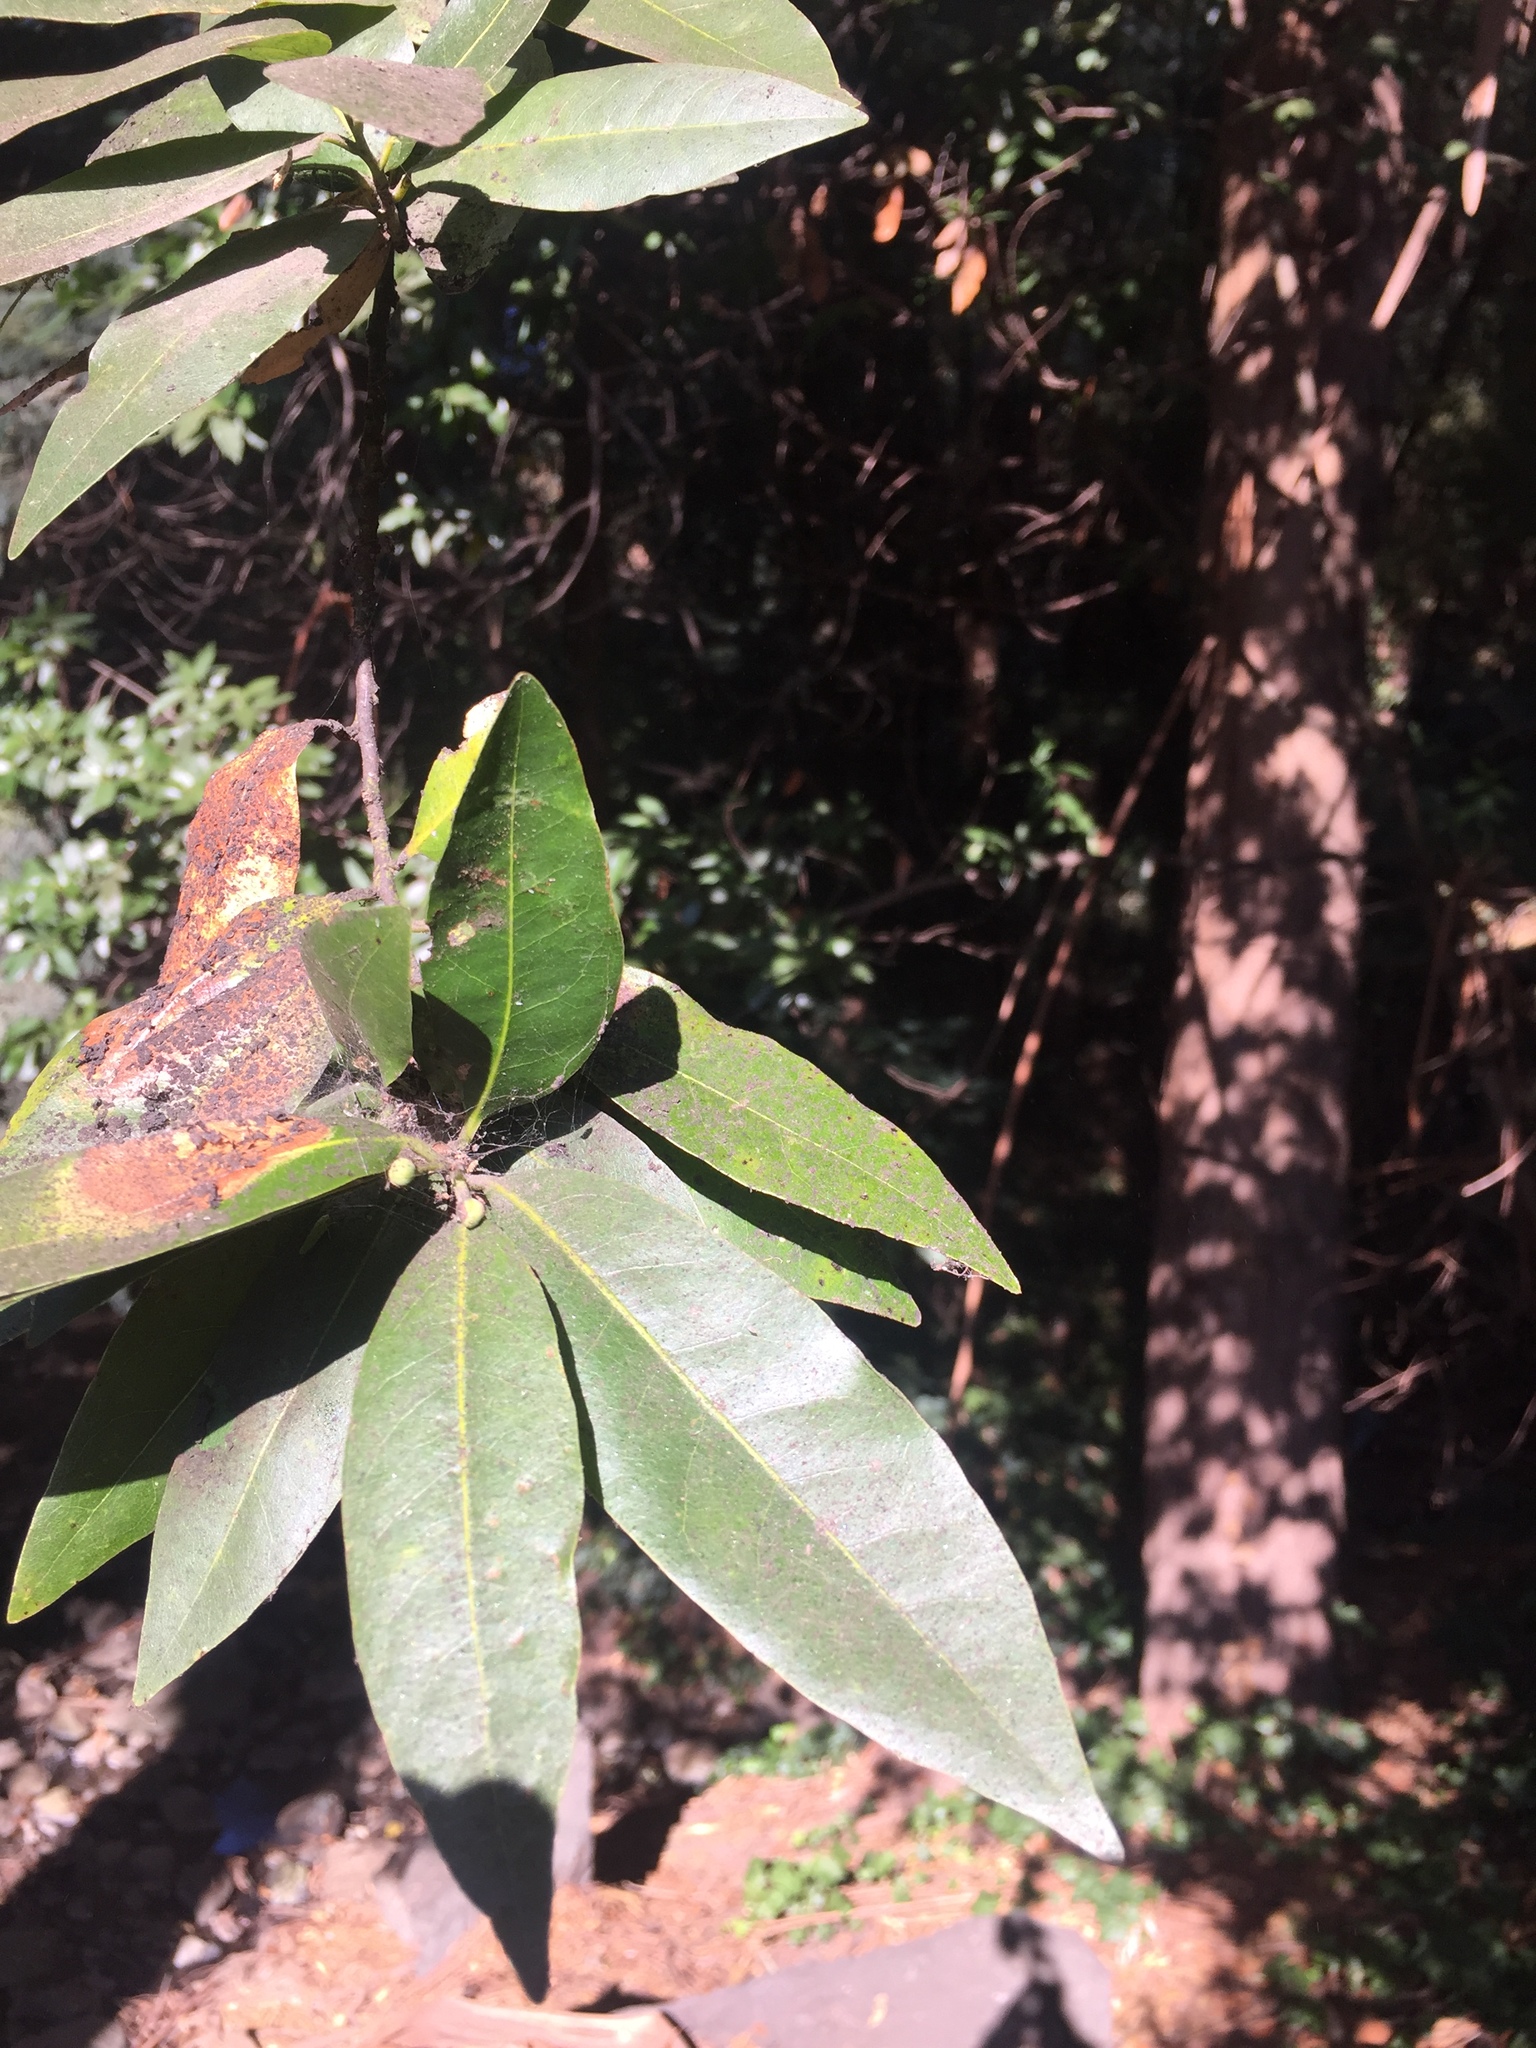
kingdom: Plantae
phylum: Tracheophyta
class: Magnoliopsida
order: Laurales
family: Lauraceae
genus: Umbellularia
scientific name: Umbellularia californica
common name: California bay
